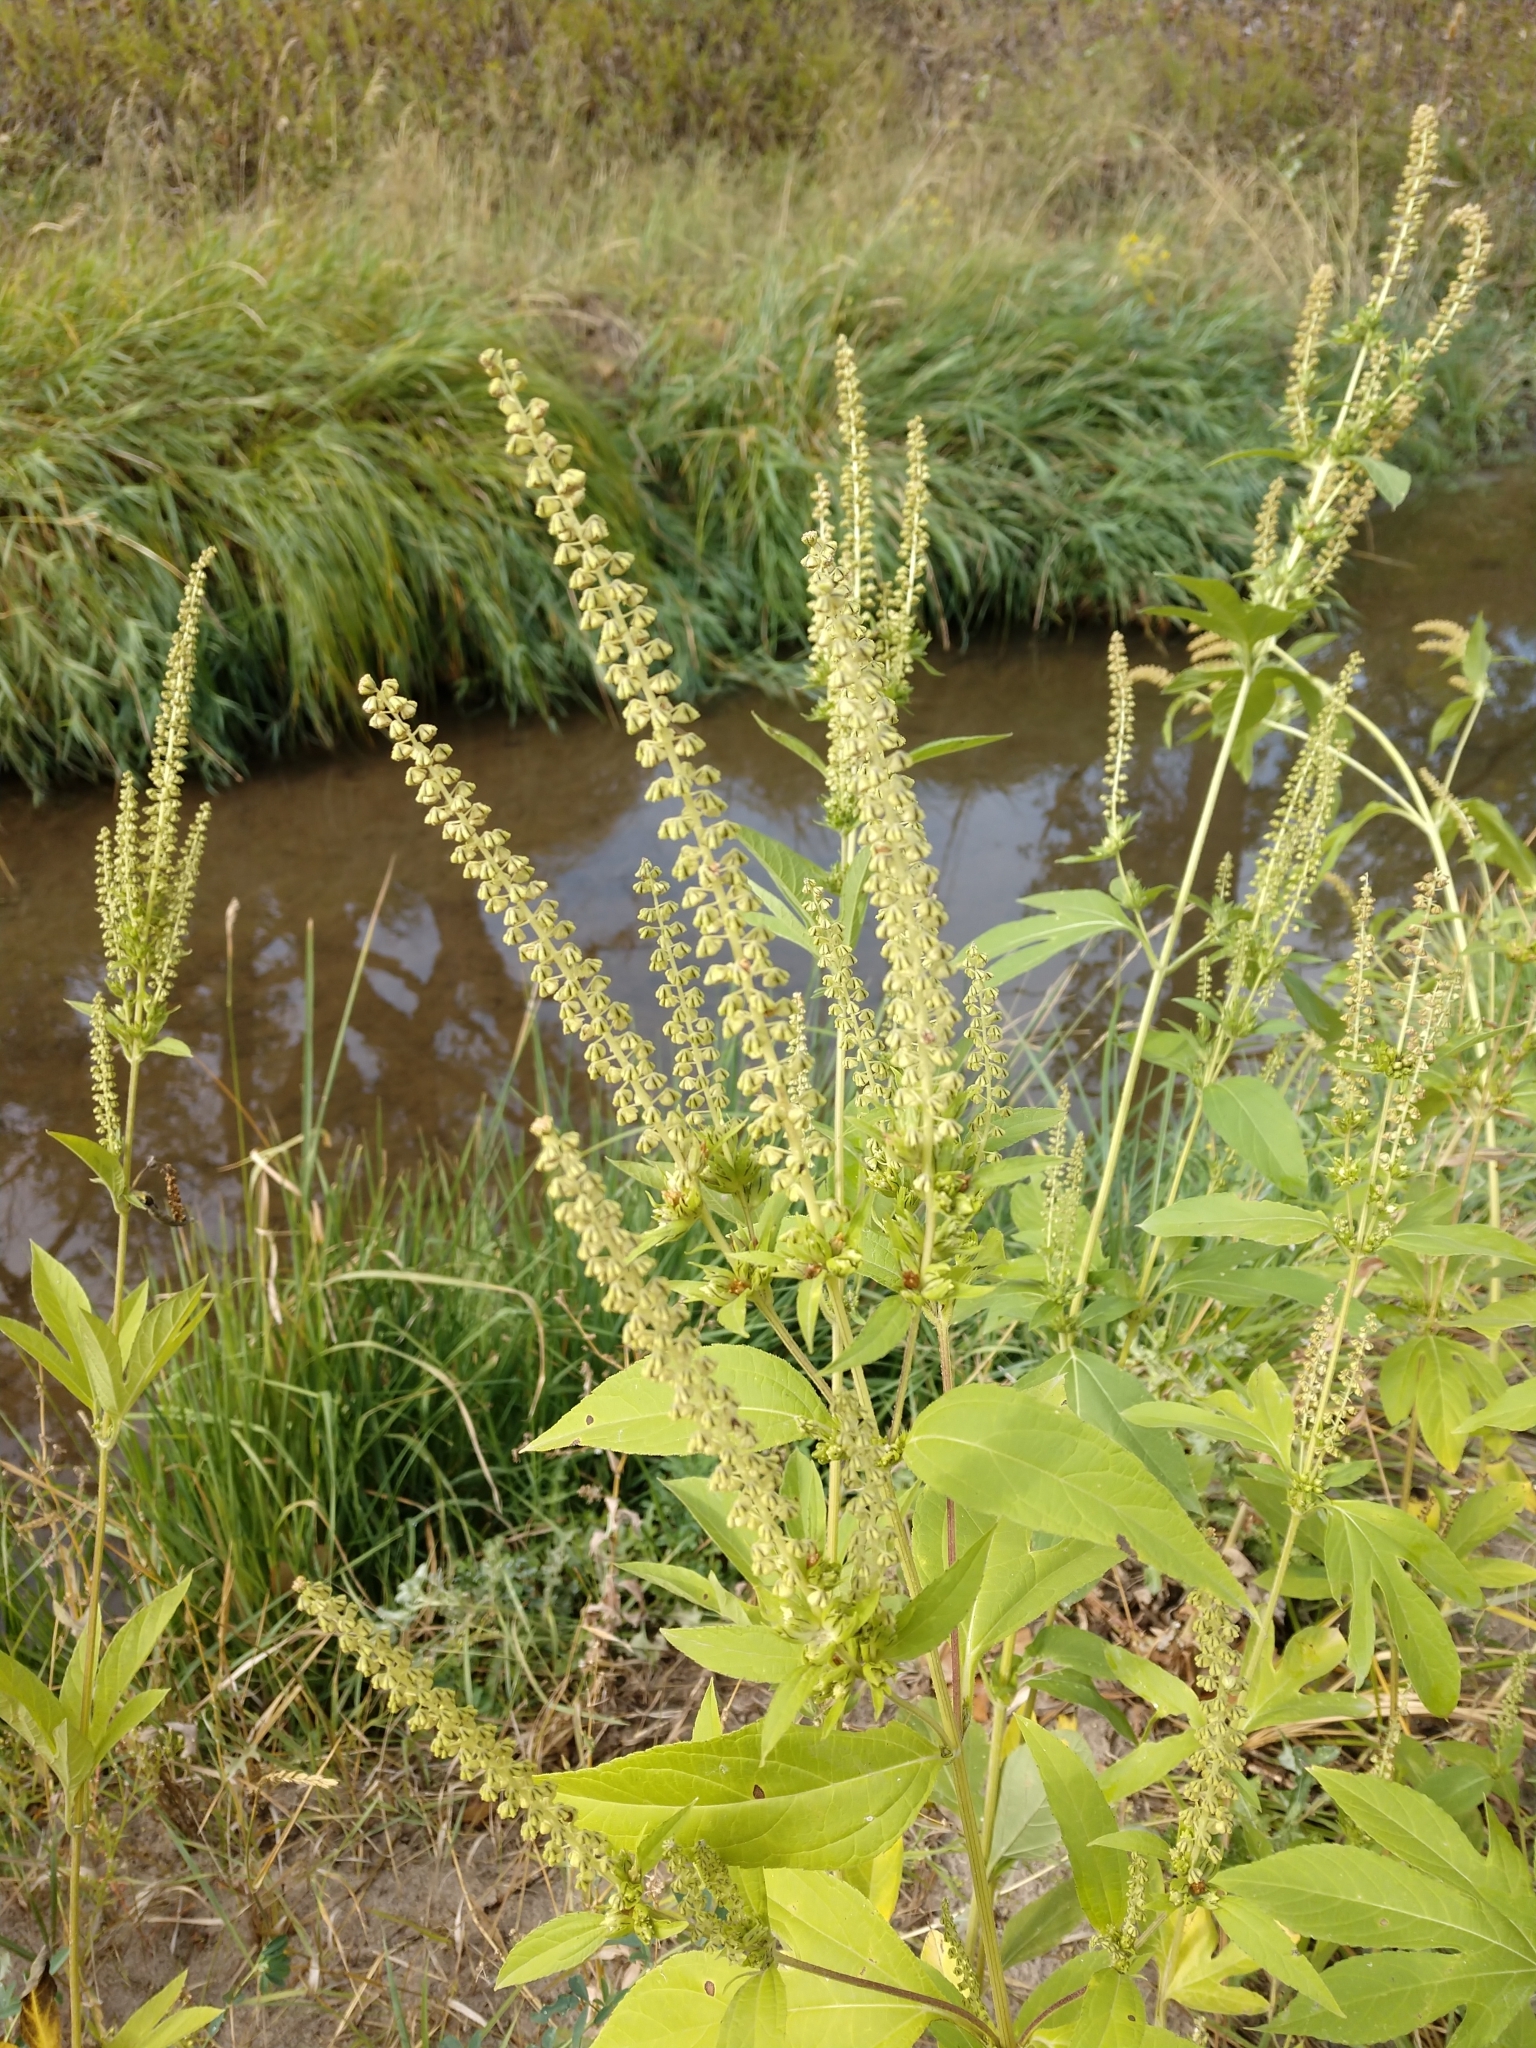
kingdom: Plantae
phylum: Tracheophyta
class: Magnoliopsida
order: Asterales
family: Asteraceae
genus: Ambrosia
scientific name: Ambrosia trifida
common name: Giant ragweed
